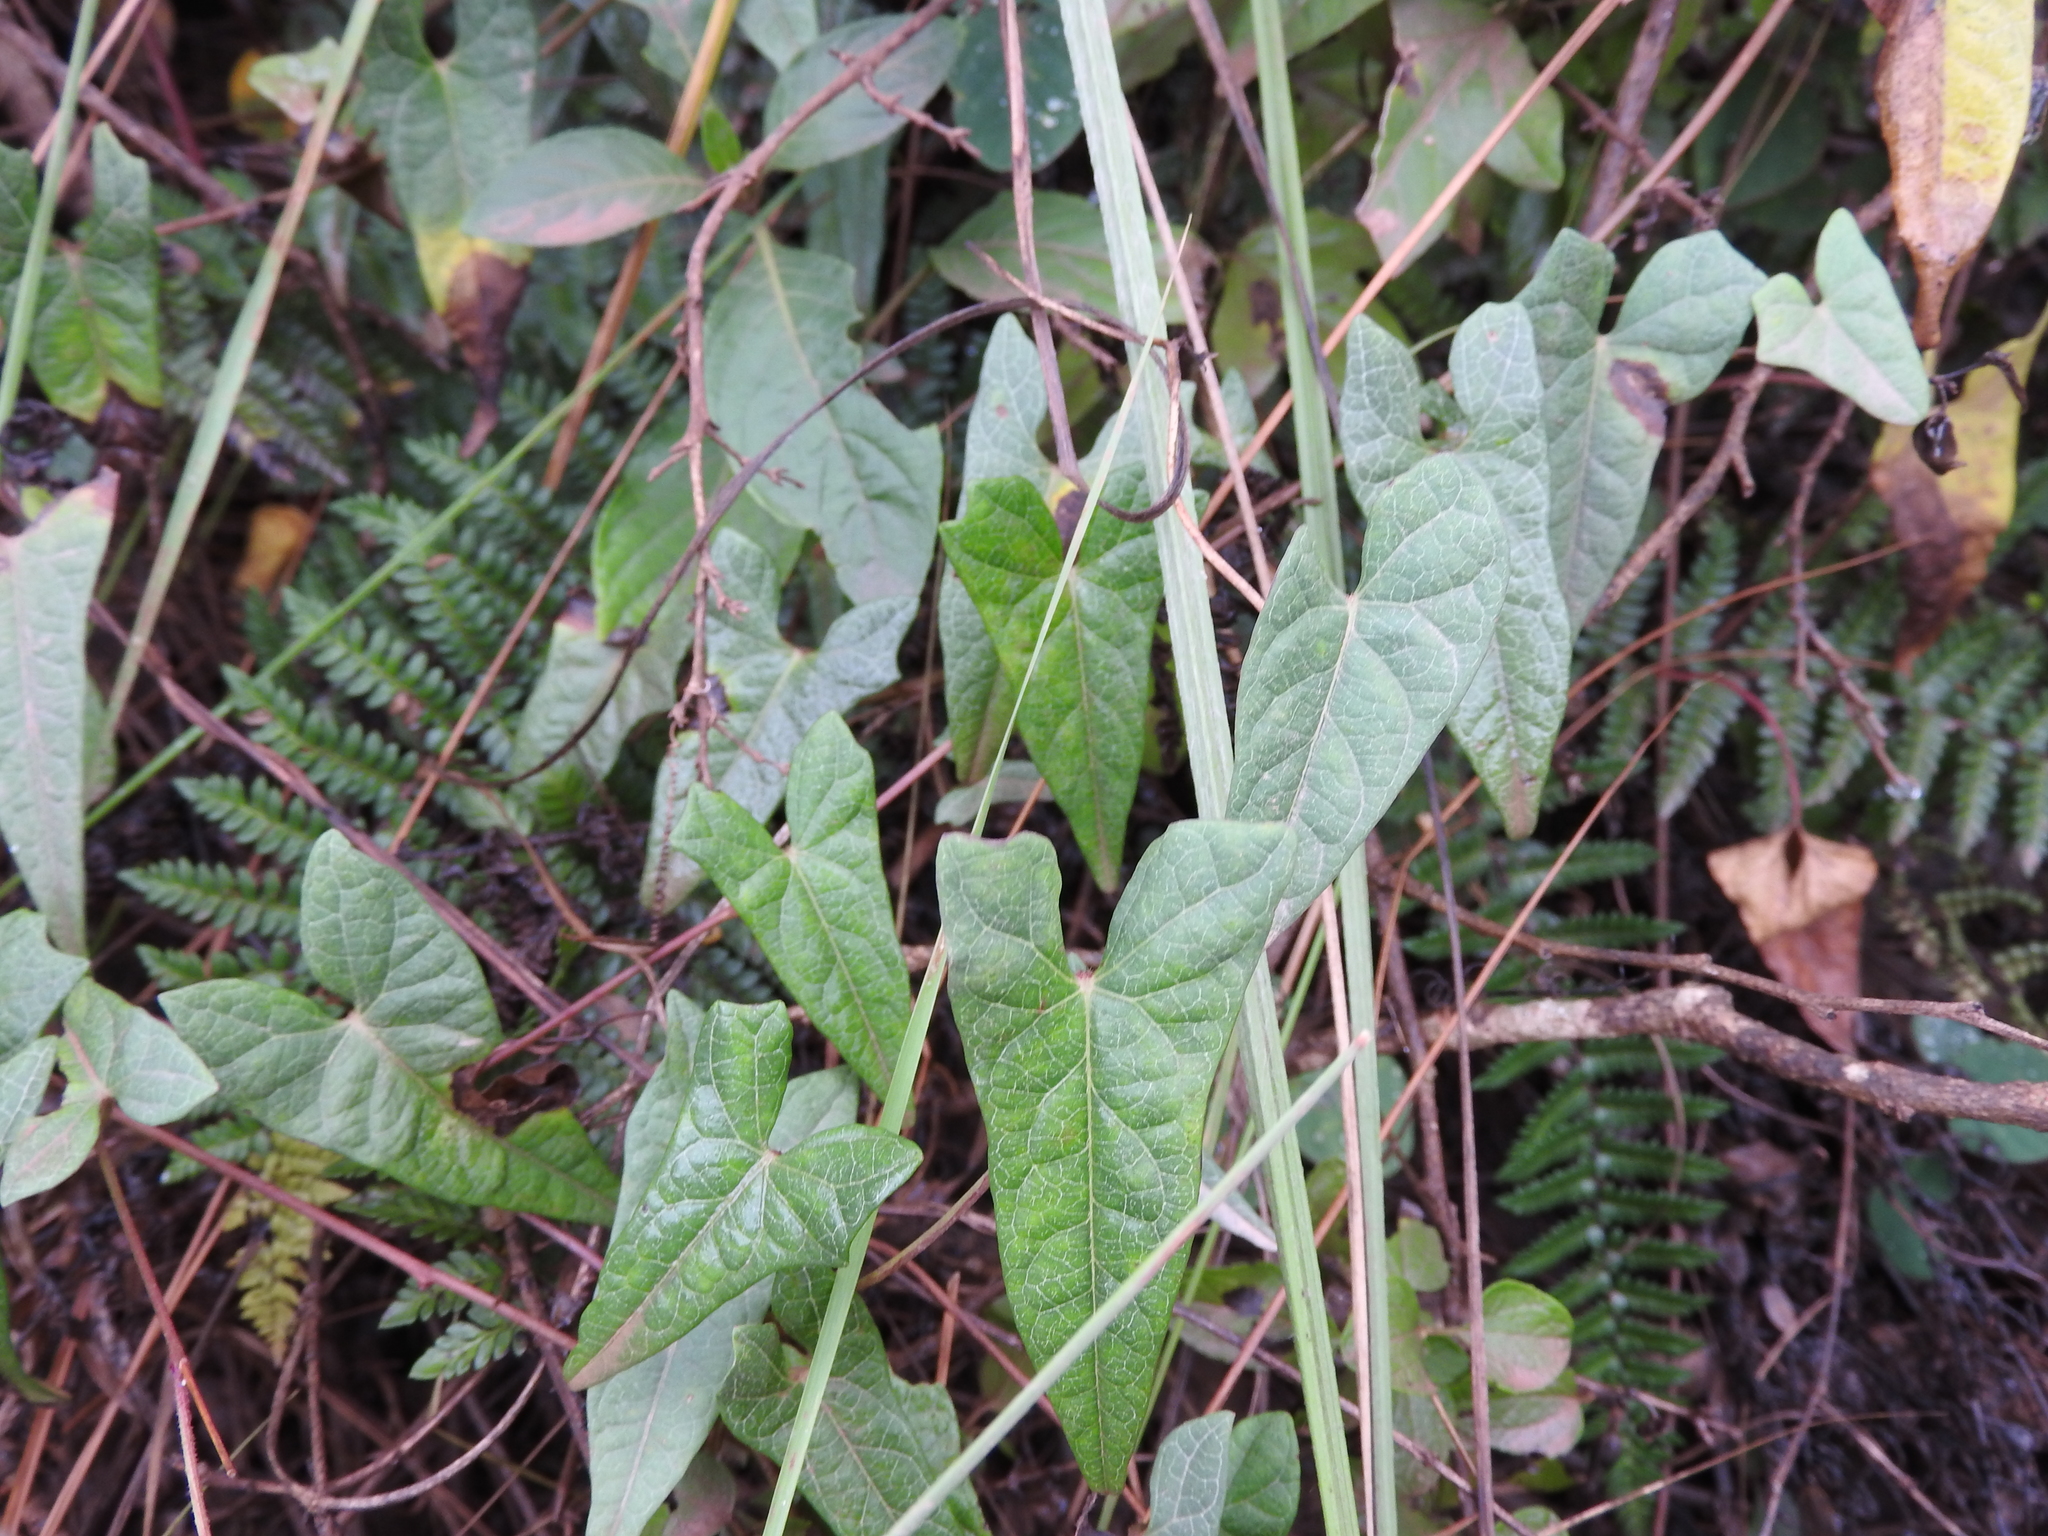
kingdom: Plantae
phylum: Tracheophyta
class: Magnoliopsida
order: Solanales
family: Convolvulaceae
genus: Ipomoea
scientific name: Ipomoea elongata
